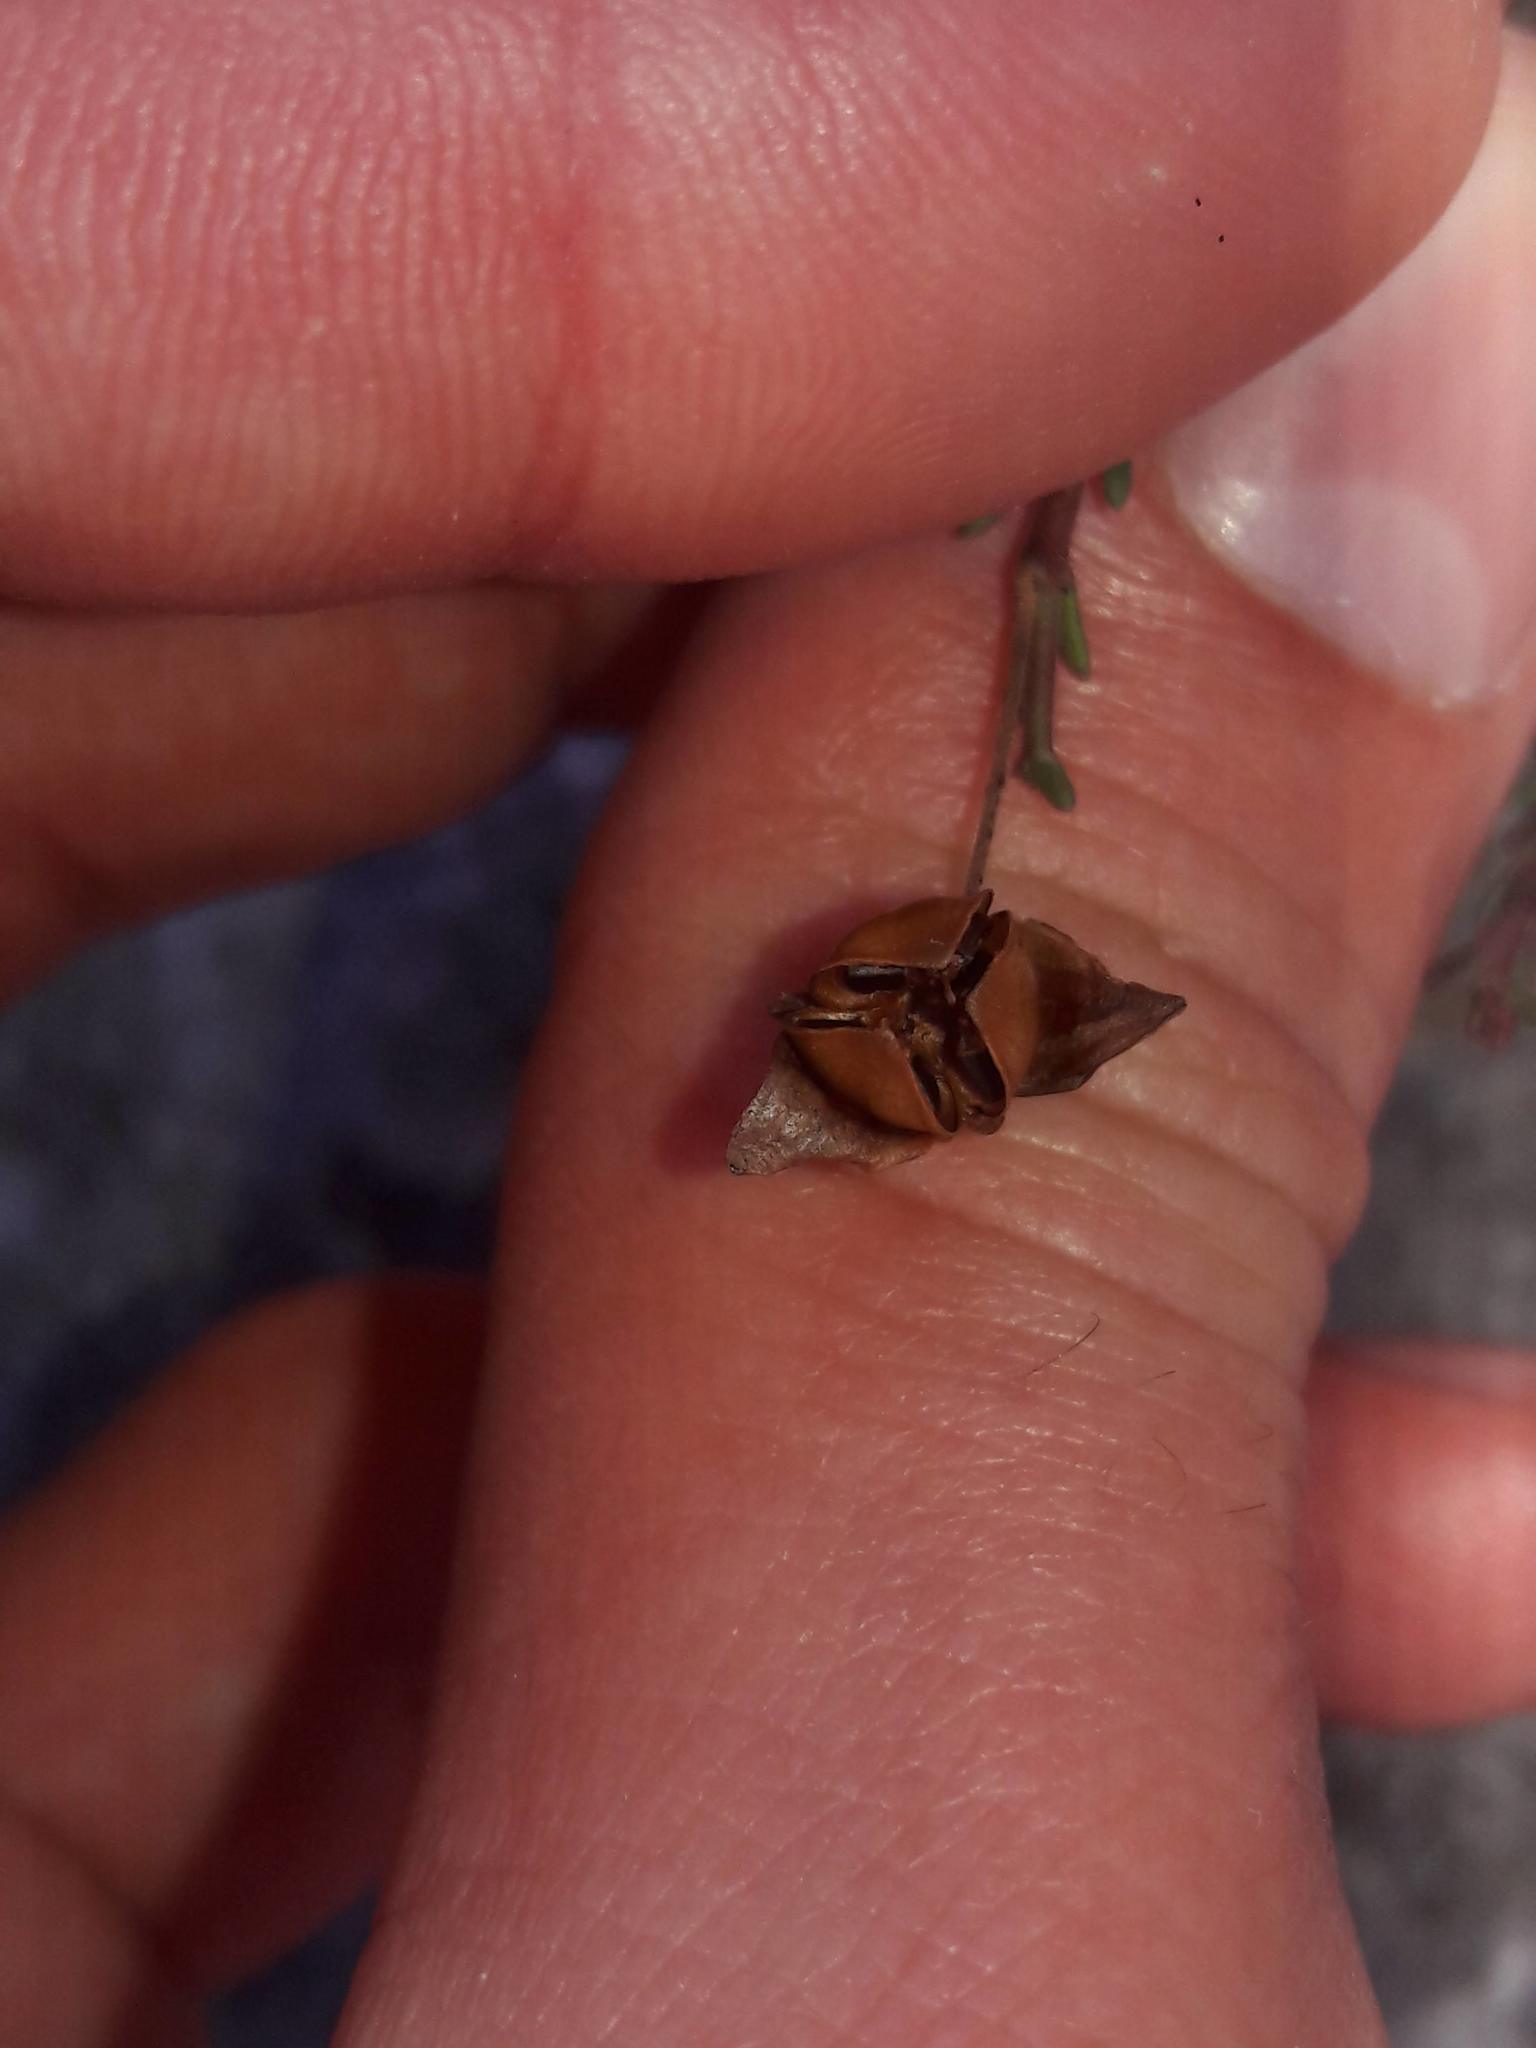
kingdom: Plantae
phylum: Tracheophyta
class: Magnoliopsida
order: Malvales
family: Cistaceae
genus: Fumana
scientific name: Fumana ericifolia
